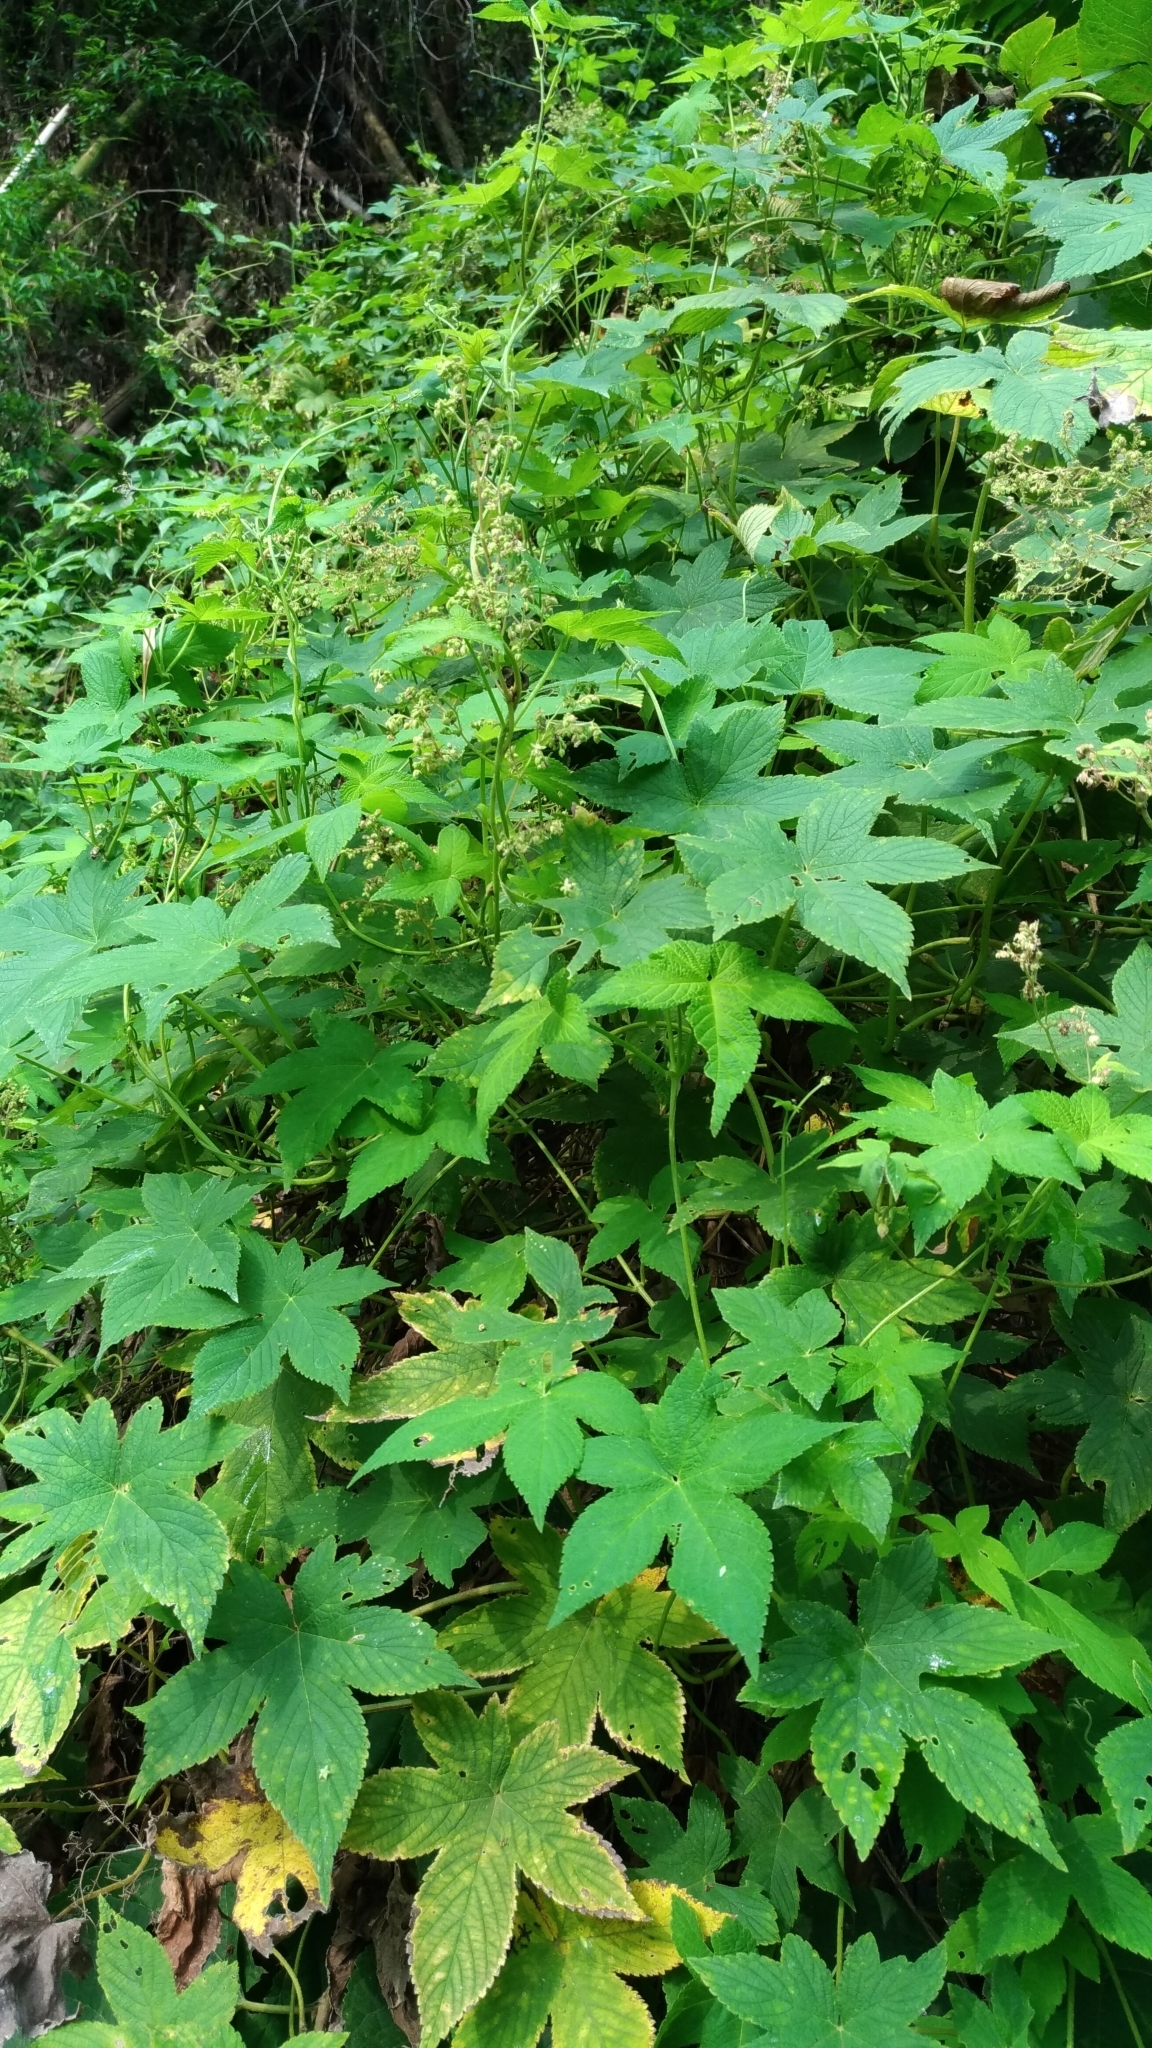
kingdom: Plantae
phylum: Tracheophyta
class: Magnoliopsida
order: Rosales
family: Cannabaceae
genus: Humulus
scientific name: Humulus scandens
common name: Japanese hop
